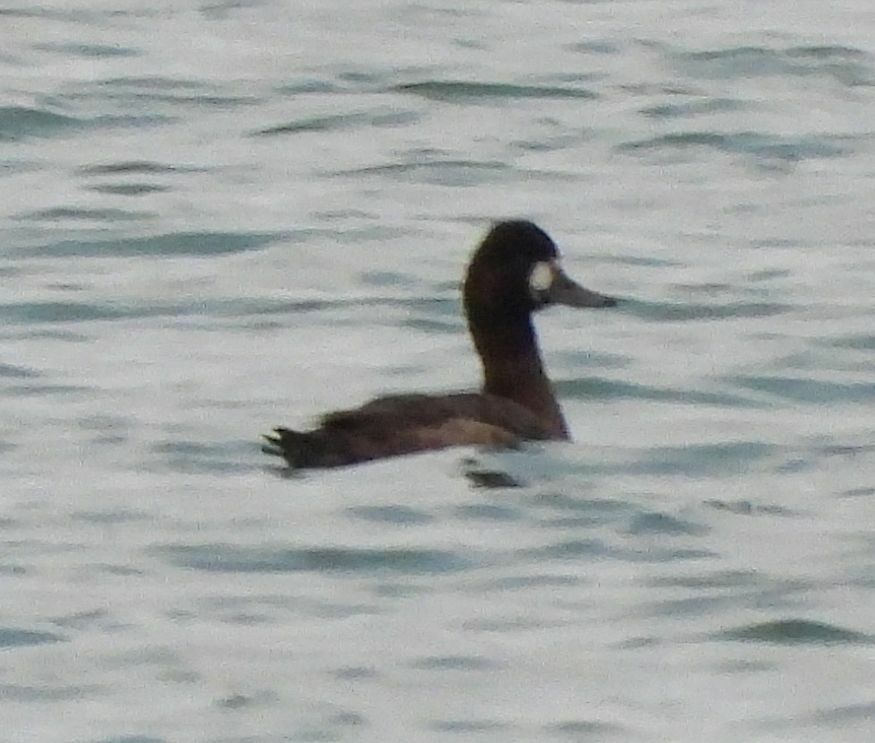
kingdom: Animalia
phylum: Chordata
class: Aves
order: Anseriformes
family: Anatidae
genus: Aythya
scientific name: Aythya affinis
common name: Lesser scaup
